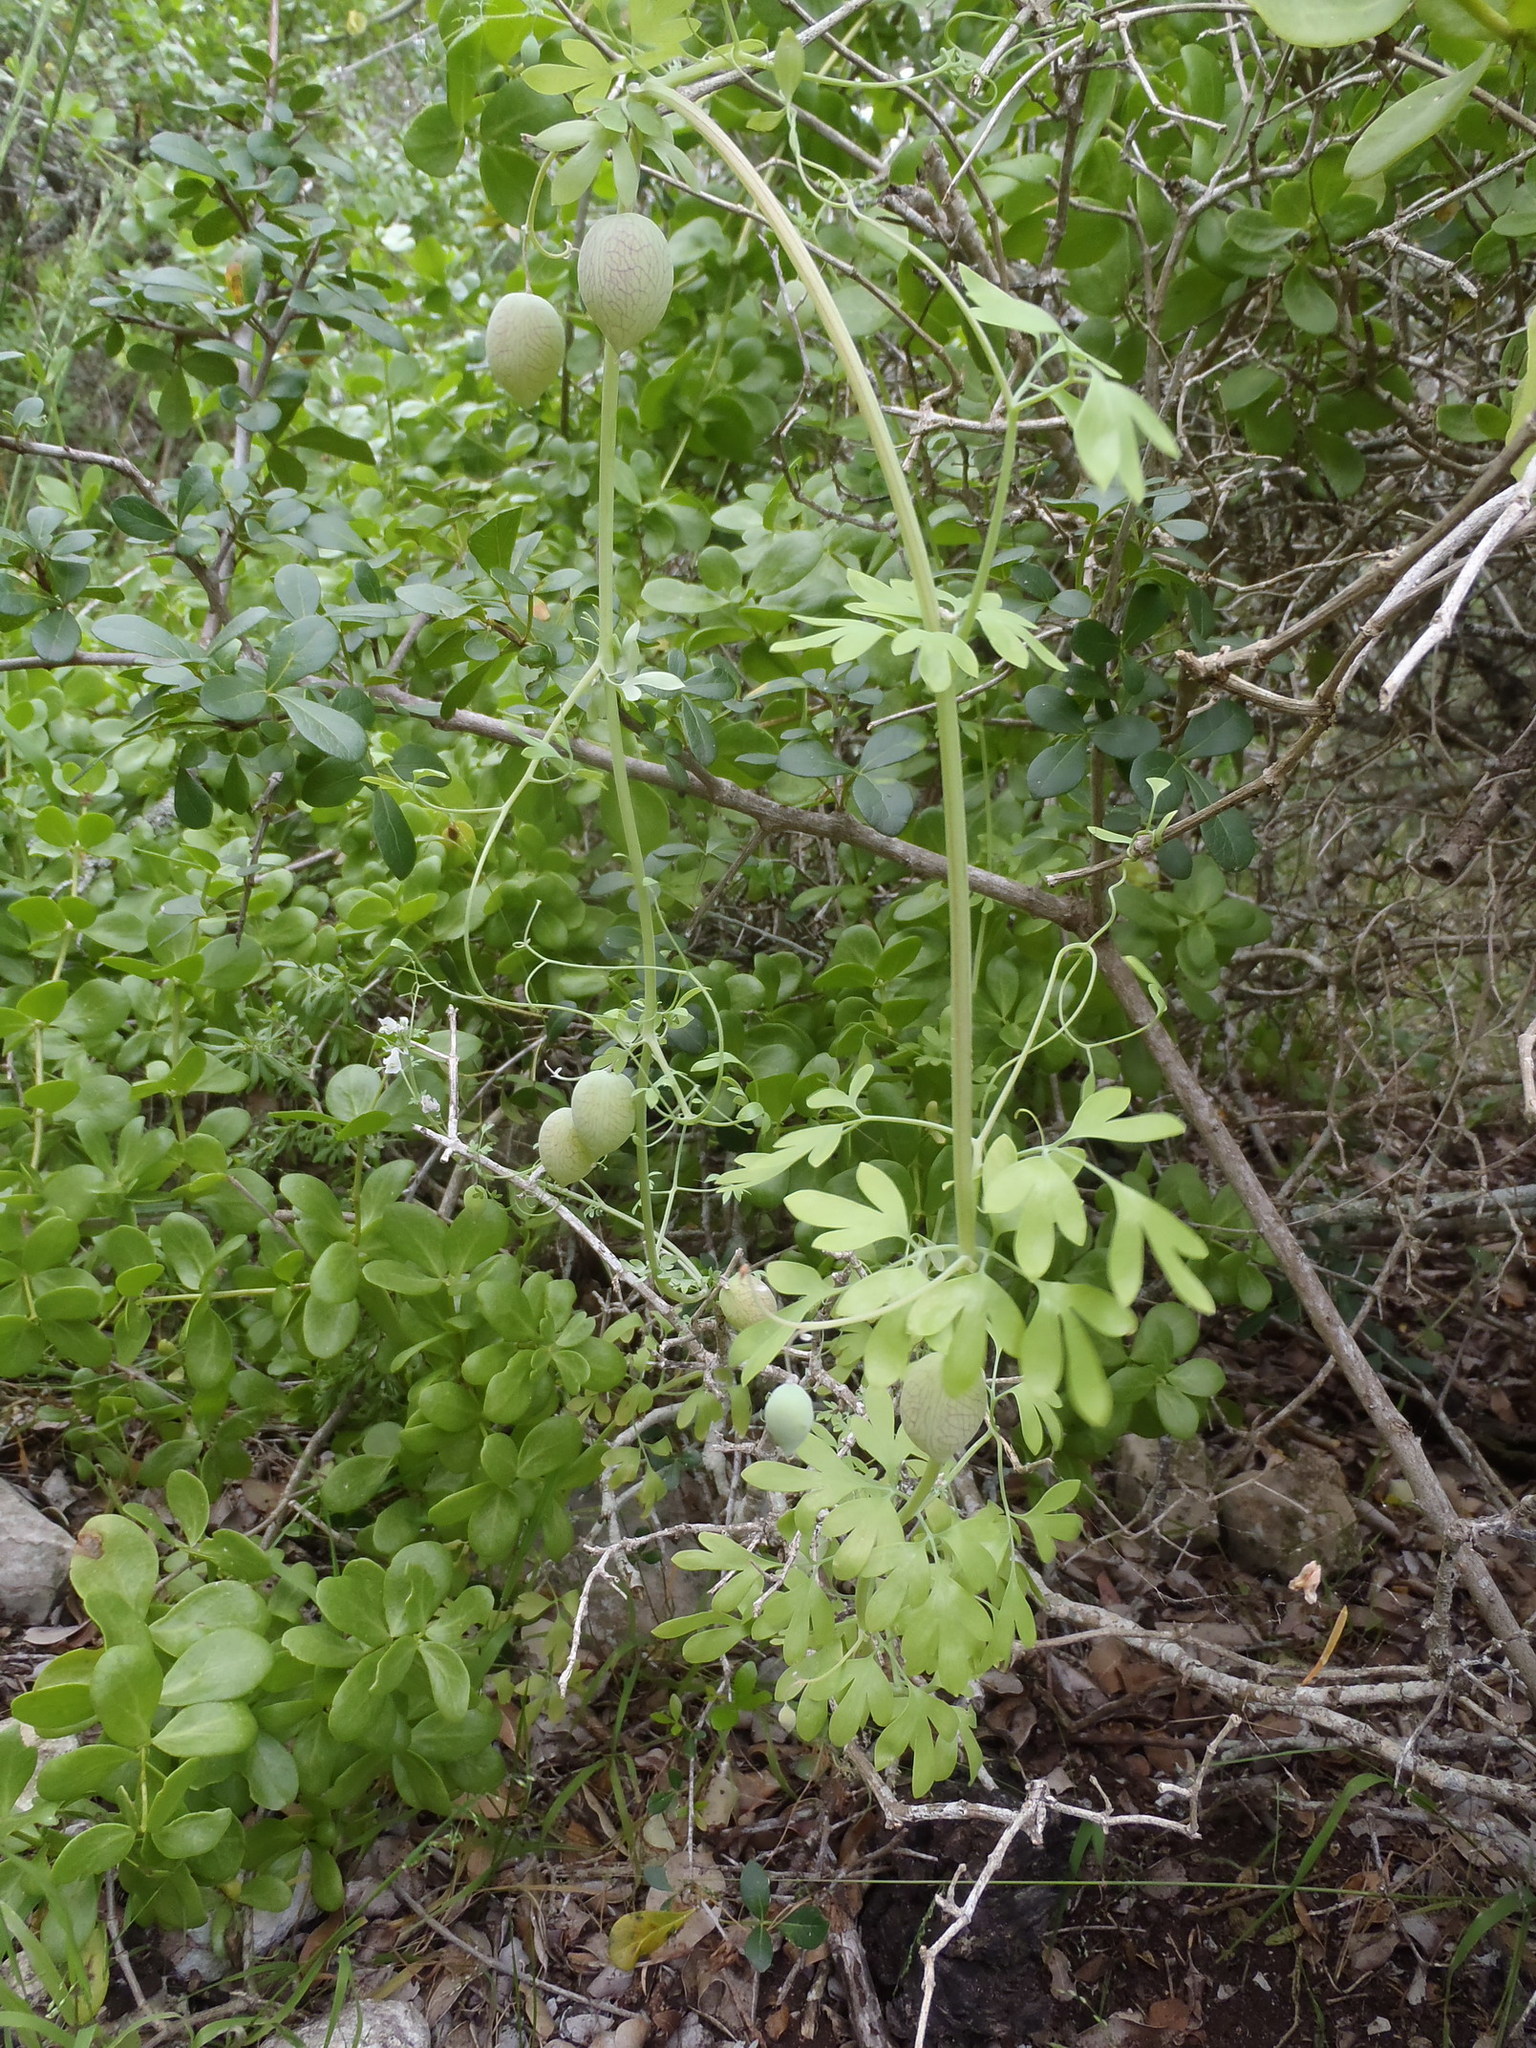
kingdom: Plantae
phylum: Tracheophyta
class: Magnoliopsida
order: Ranunculales
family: Papaveraceae
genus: Cysticapnos
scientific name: Cysticapnos vesicaria
